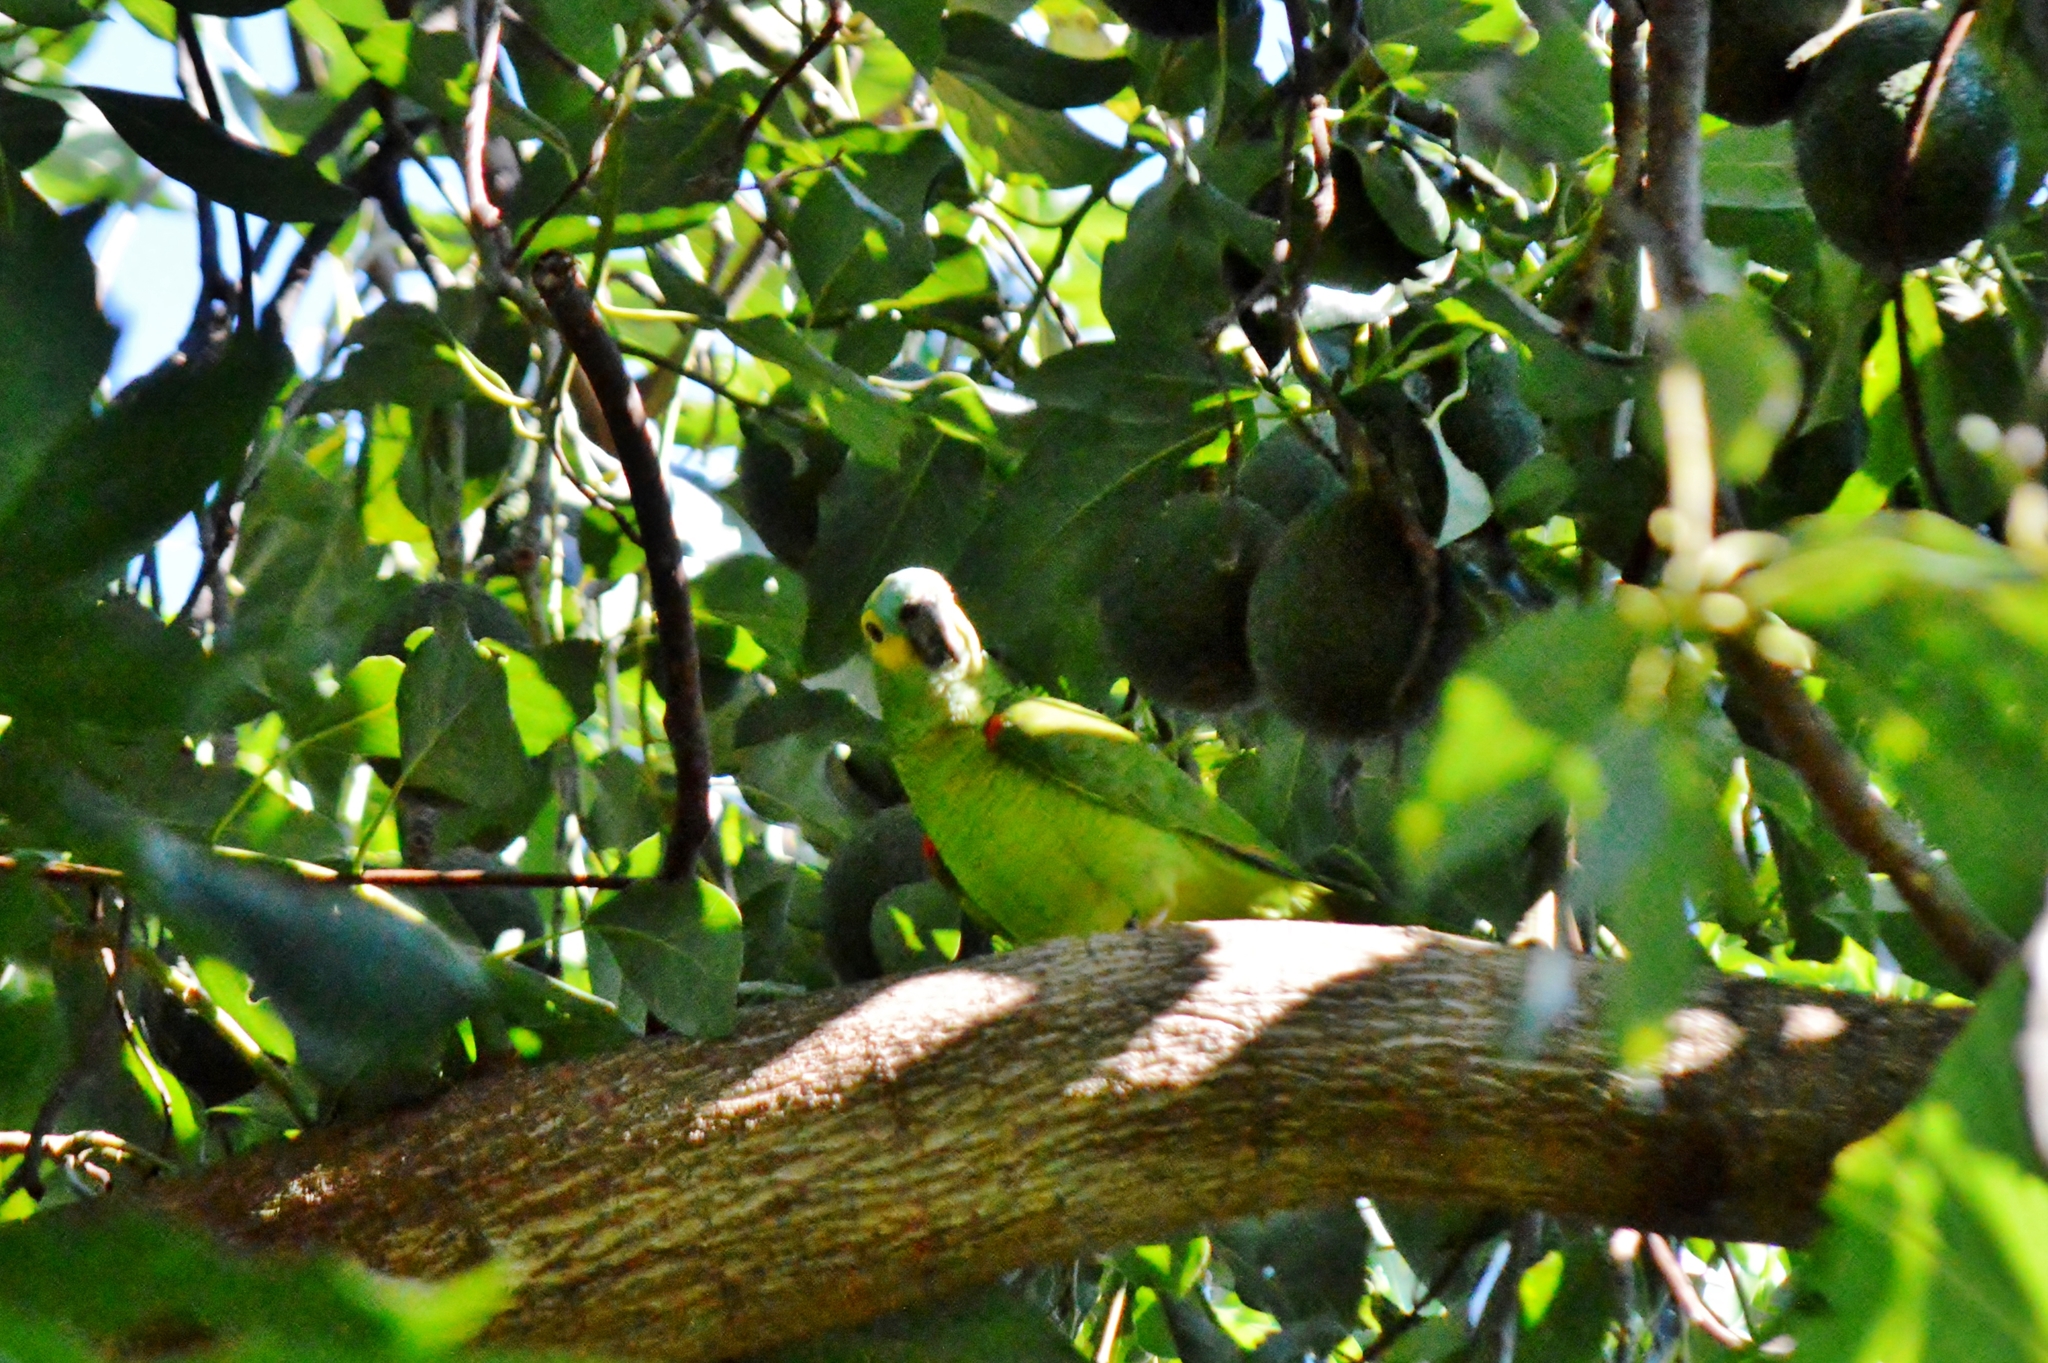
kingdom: Animalia
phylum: Chordata
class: Aves
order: Psittaciformes
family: Psittacidae
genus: Amazona
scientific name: Amazona aestiva
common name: Turquoise-fronted amazon
